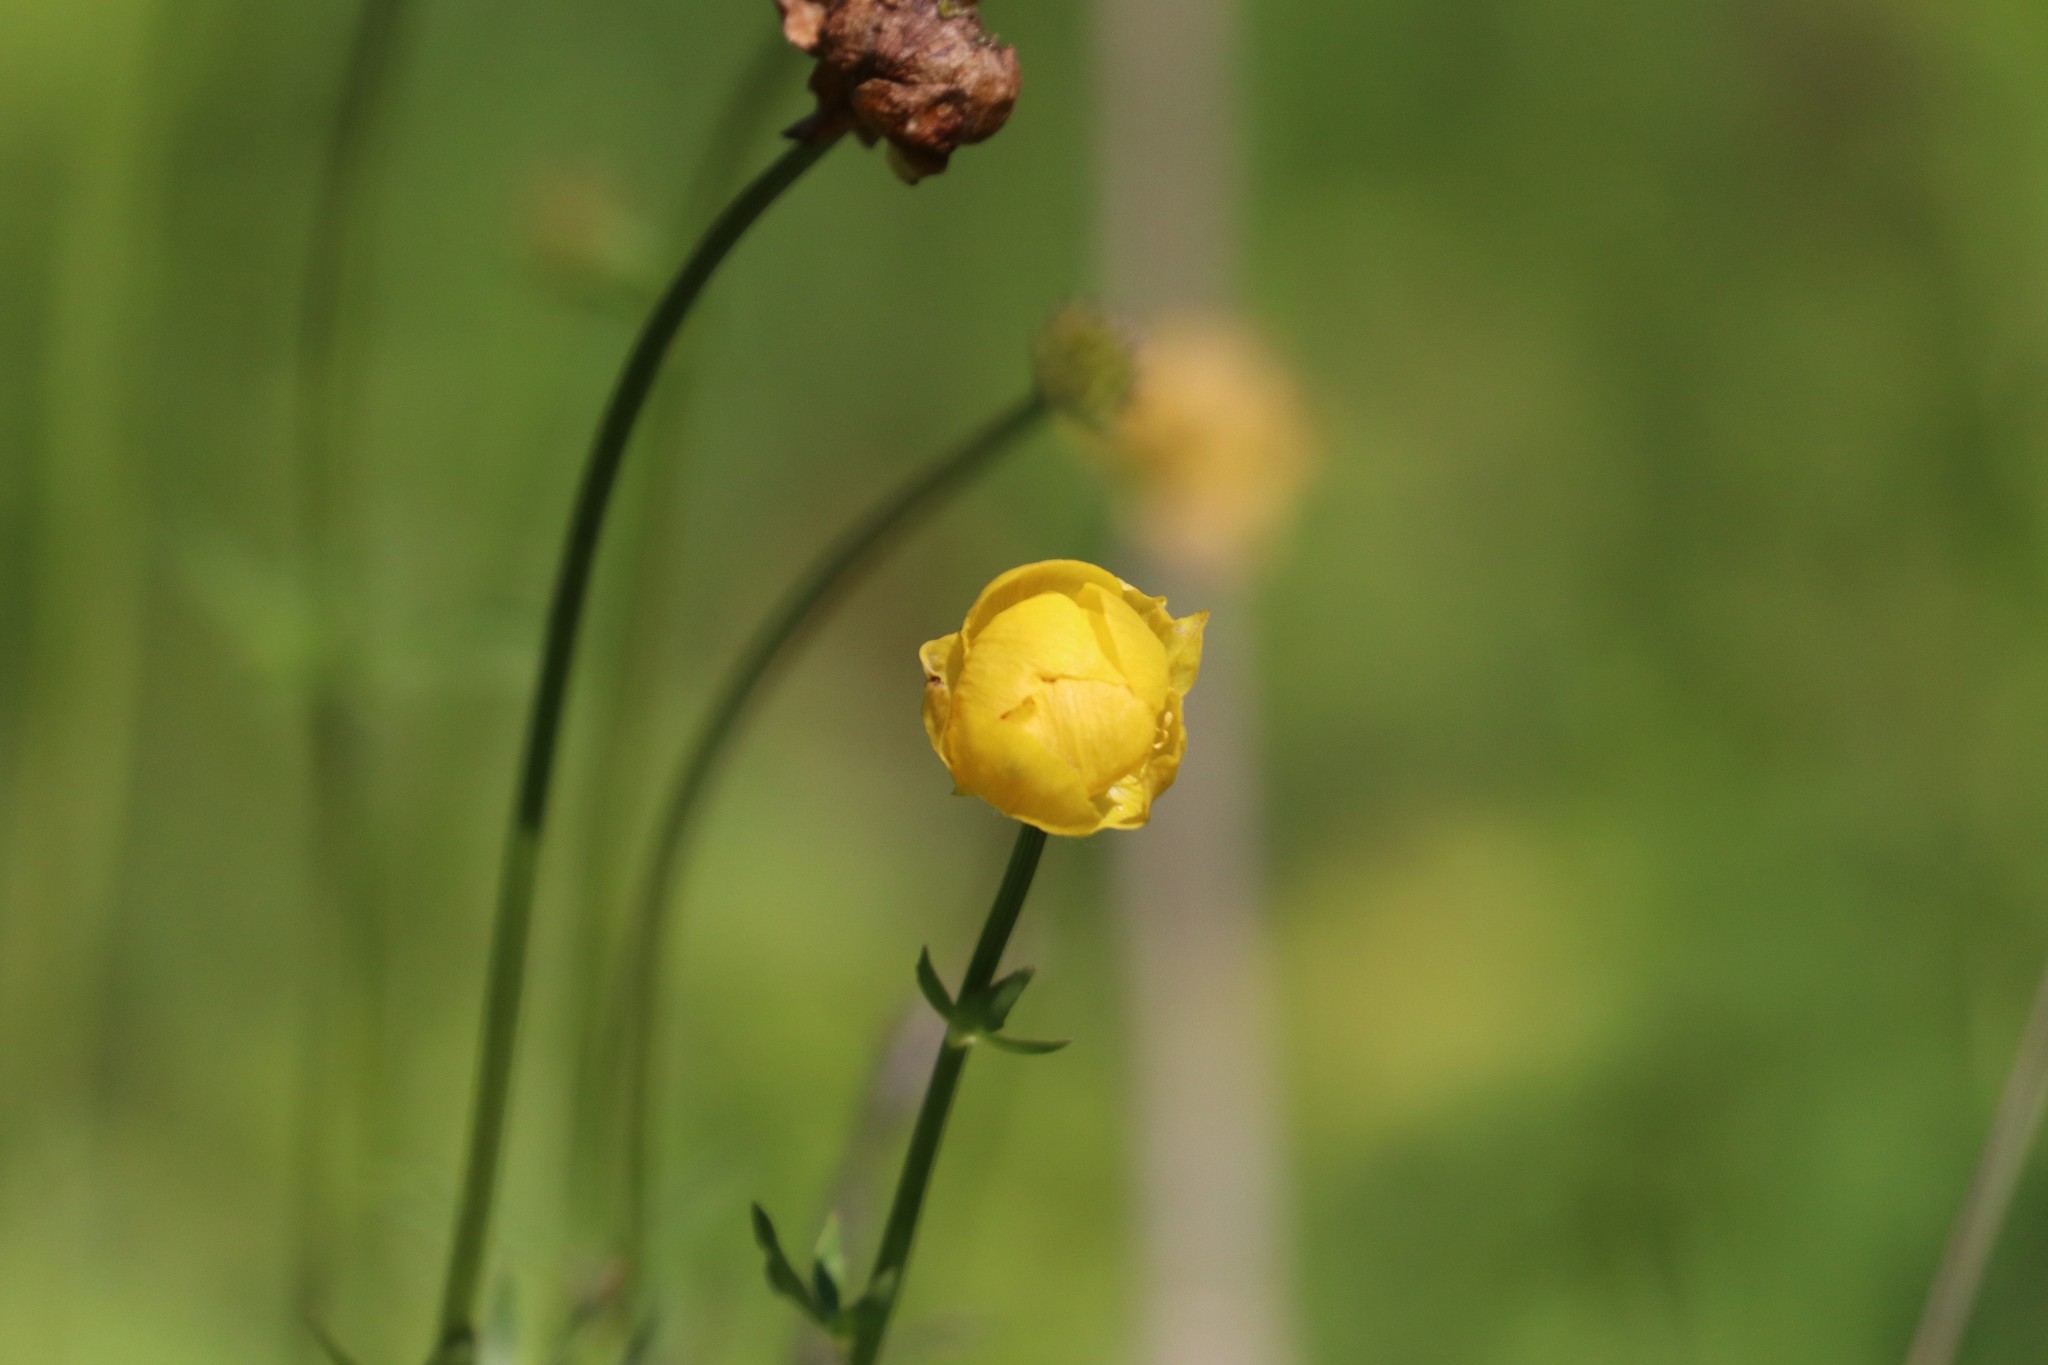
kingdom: Plantae
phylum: Tracheophyta
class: Magnoliopsida
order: Ranunculales
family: Ranunculaceae
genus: Trollius
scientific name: Trollius europaeus
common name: European globeflower
